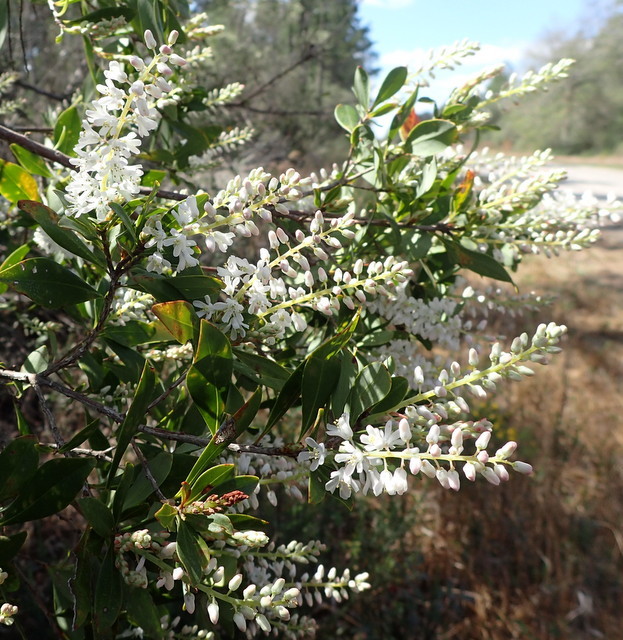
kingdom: Plantae
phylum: Tracheophyta
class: Magnoliopsida
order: Ericales
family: Cyrillaceae
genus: Cliftonia
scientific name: Cliftonia monophylla
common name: Titi
